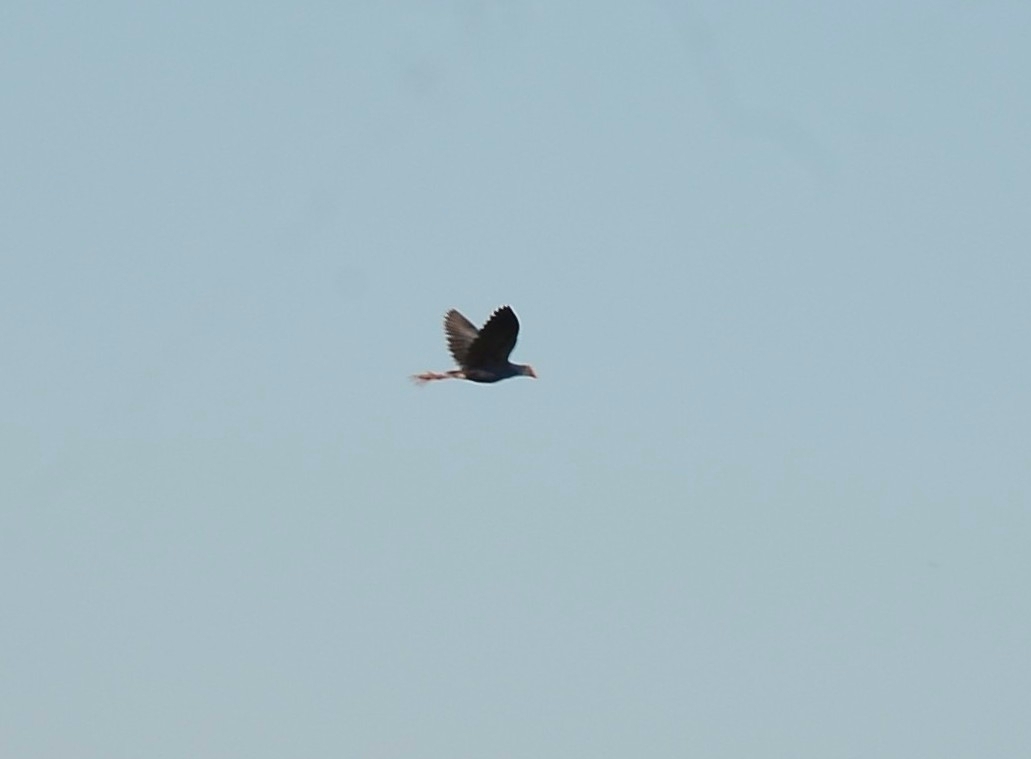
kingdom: Animalia
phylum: Chordata
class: Aves
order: Gruiformes
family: Rallidae
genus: Porphyrio
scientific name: Porphyrio porphyrio
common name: Purple swamphen
